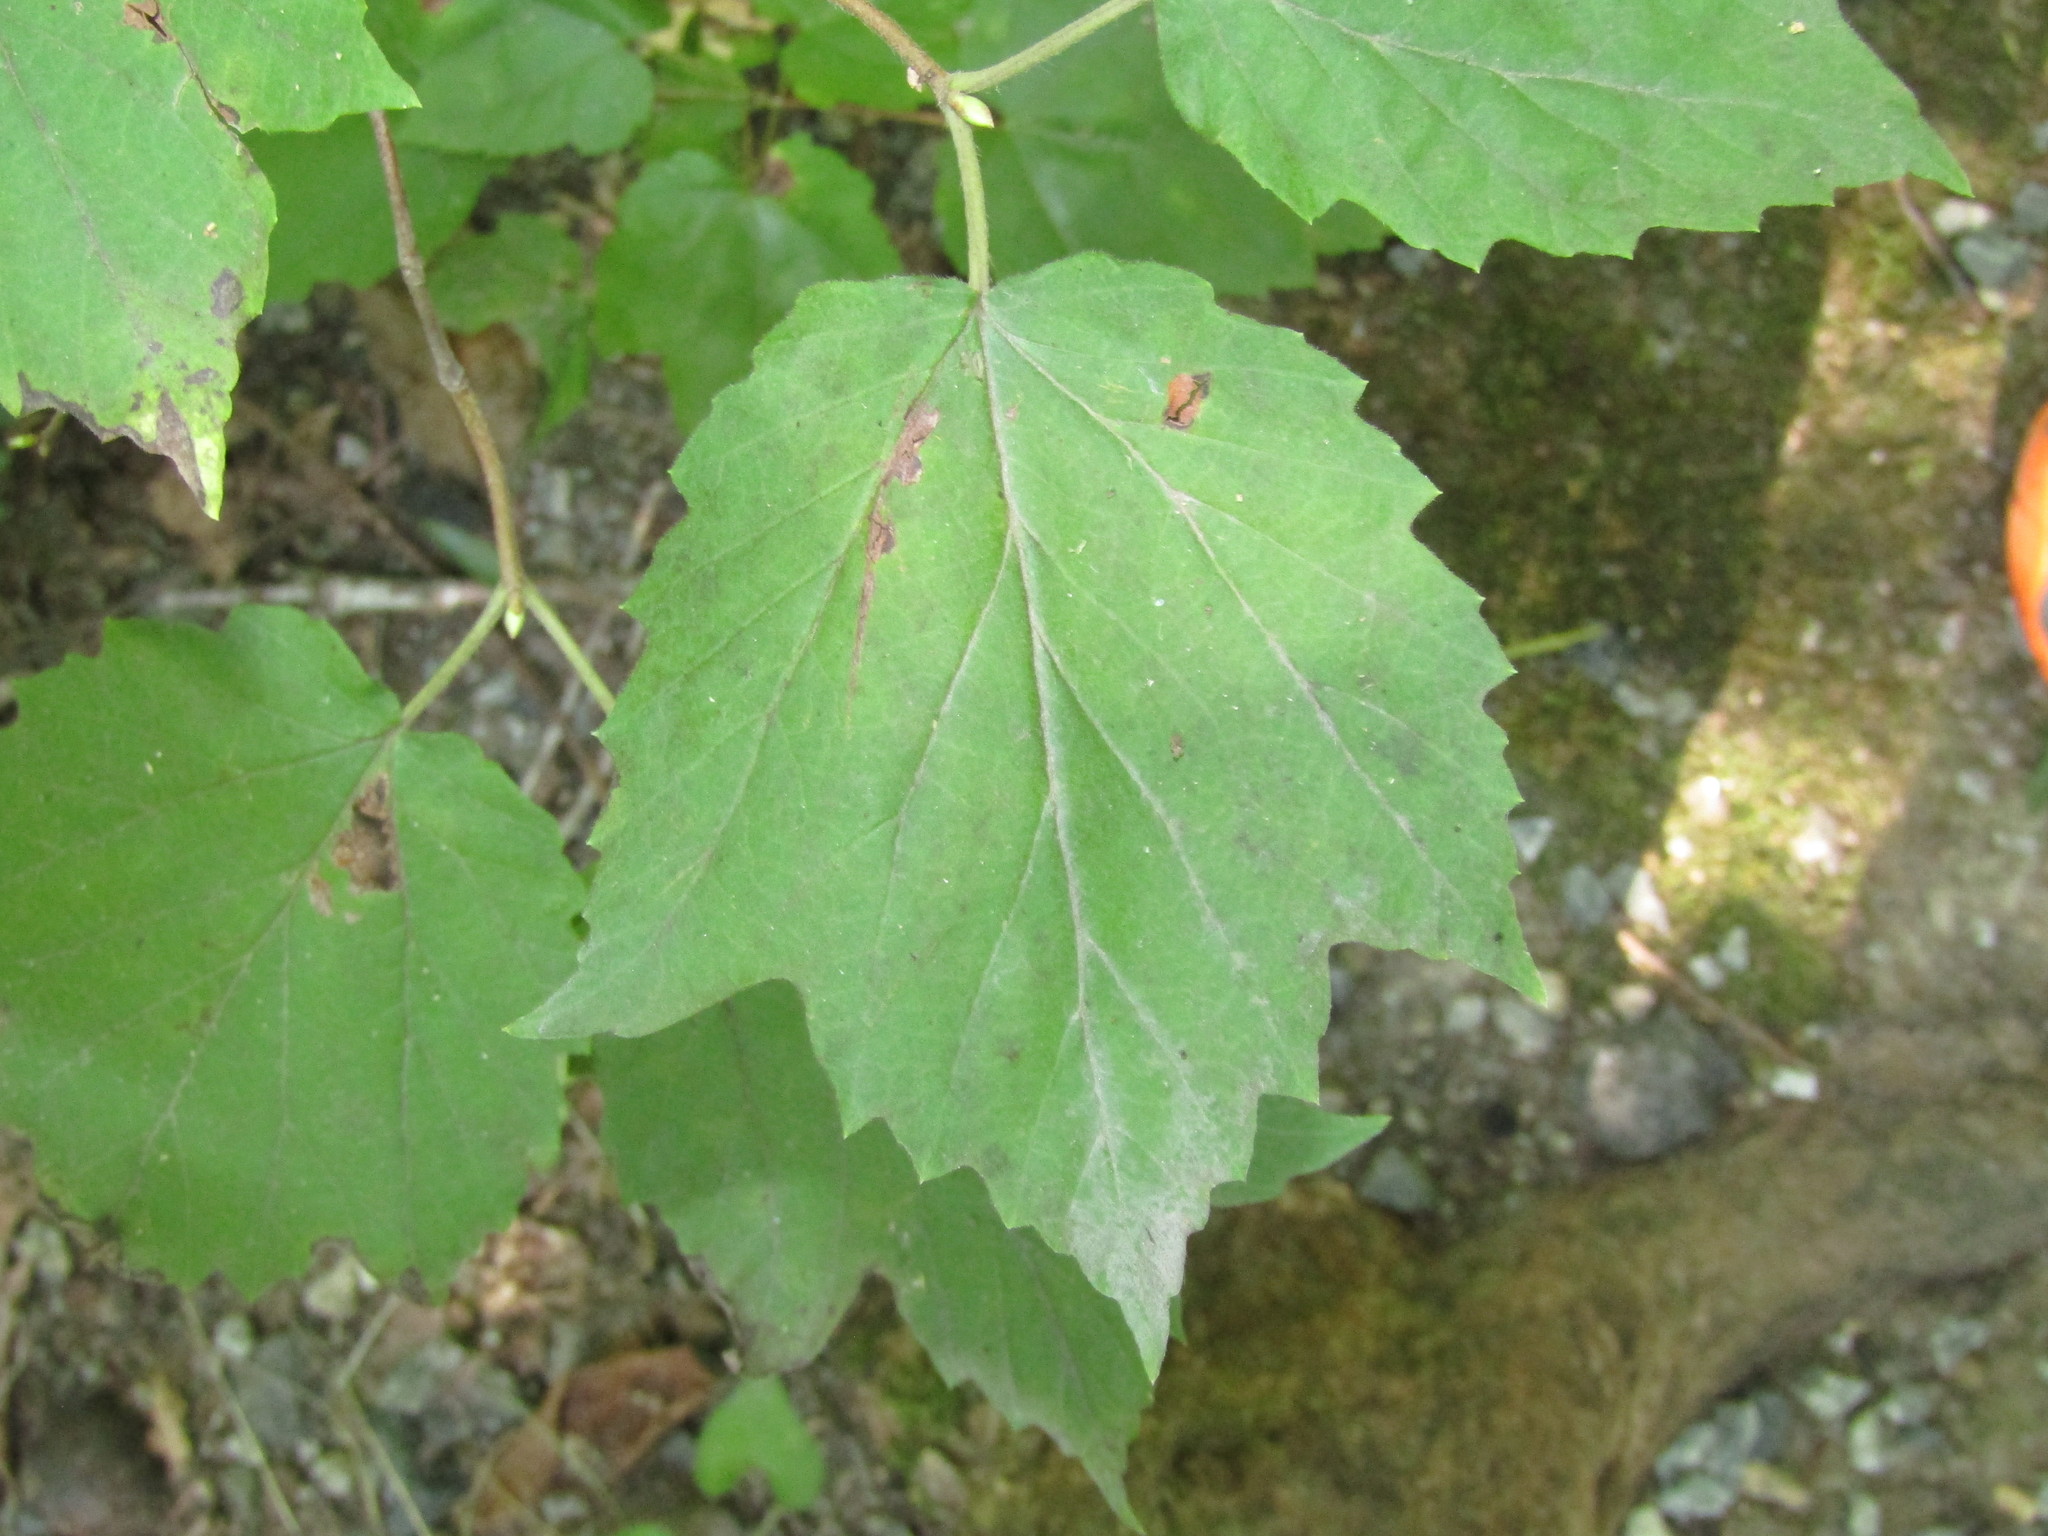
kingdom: Plantae
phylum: Tracheophyta
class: Magnoliopsida
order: Dipsacales
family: Viburnaceae
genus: Viburnum
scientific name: Viburnum acerifolium
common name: Dockmackie
